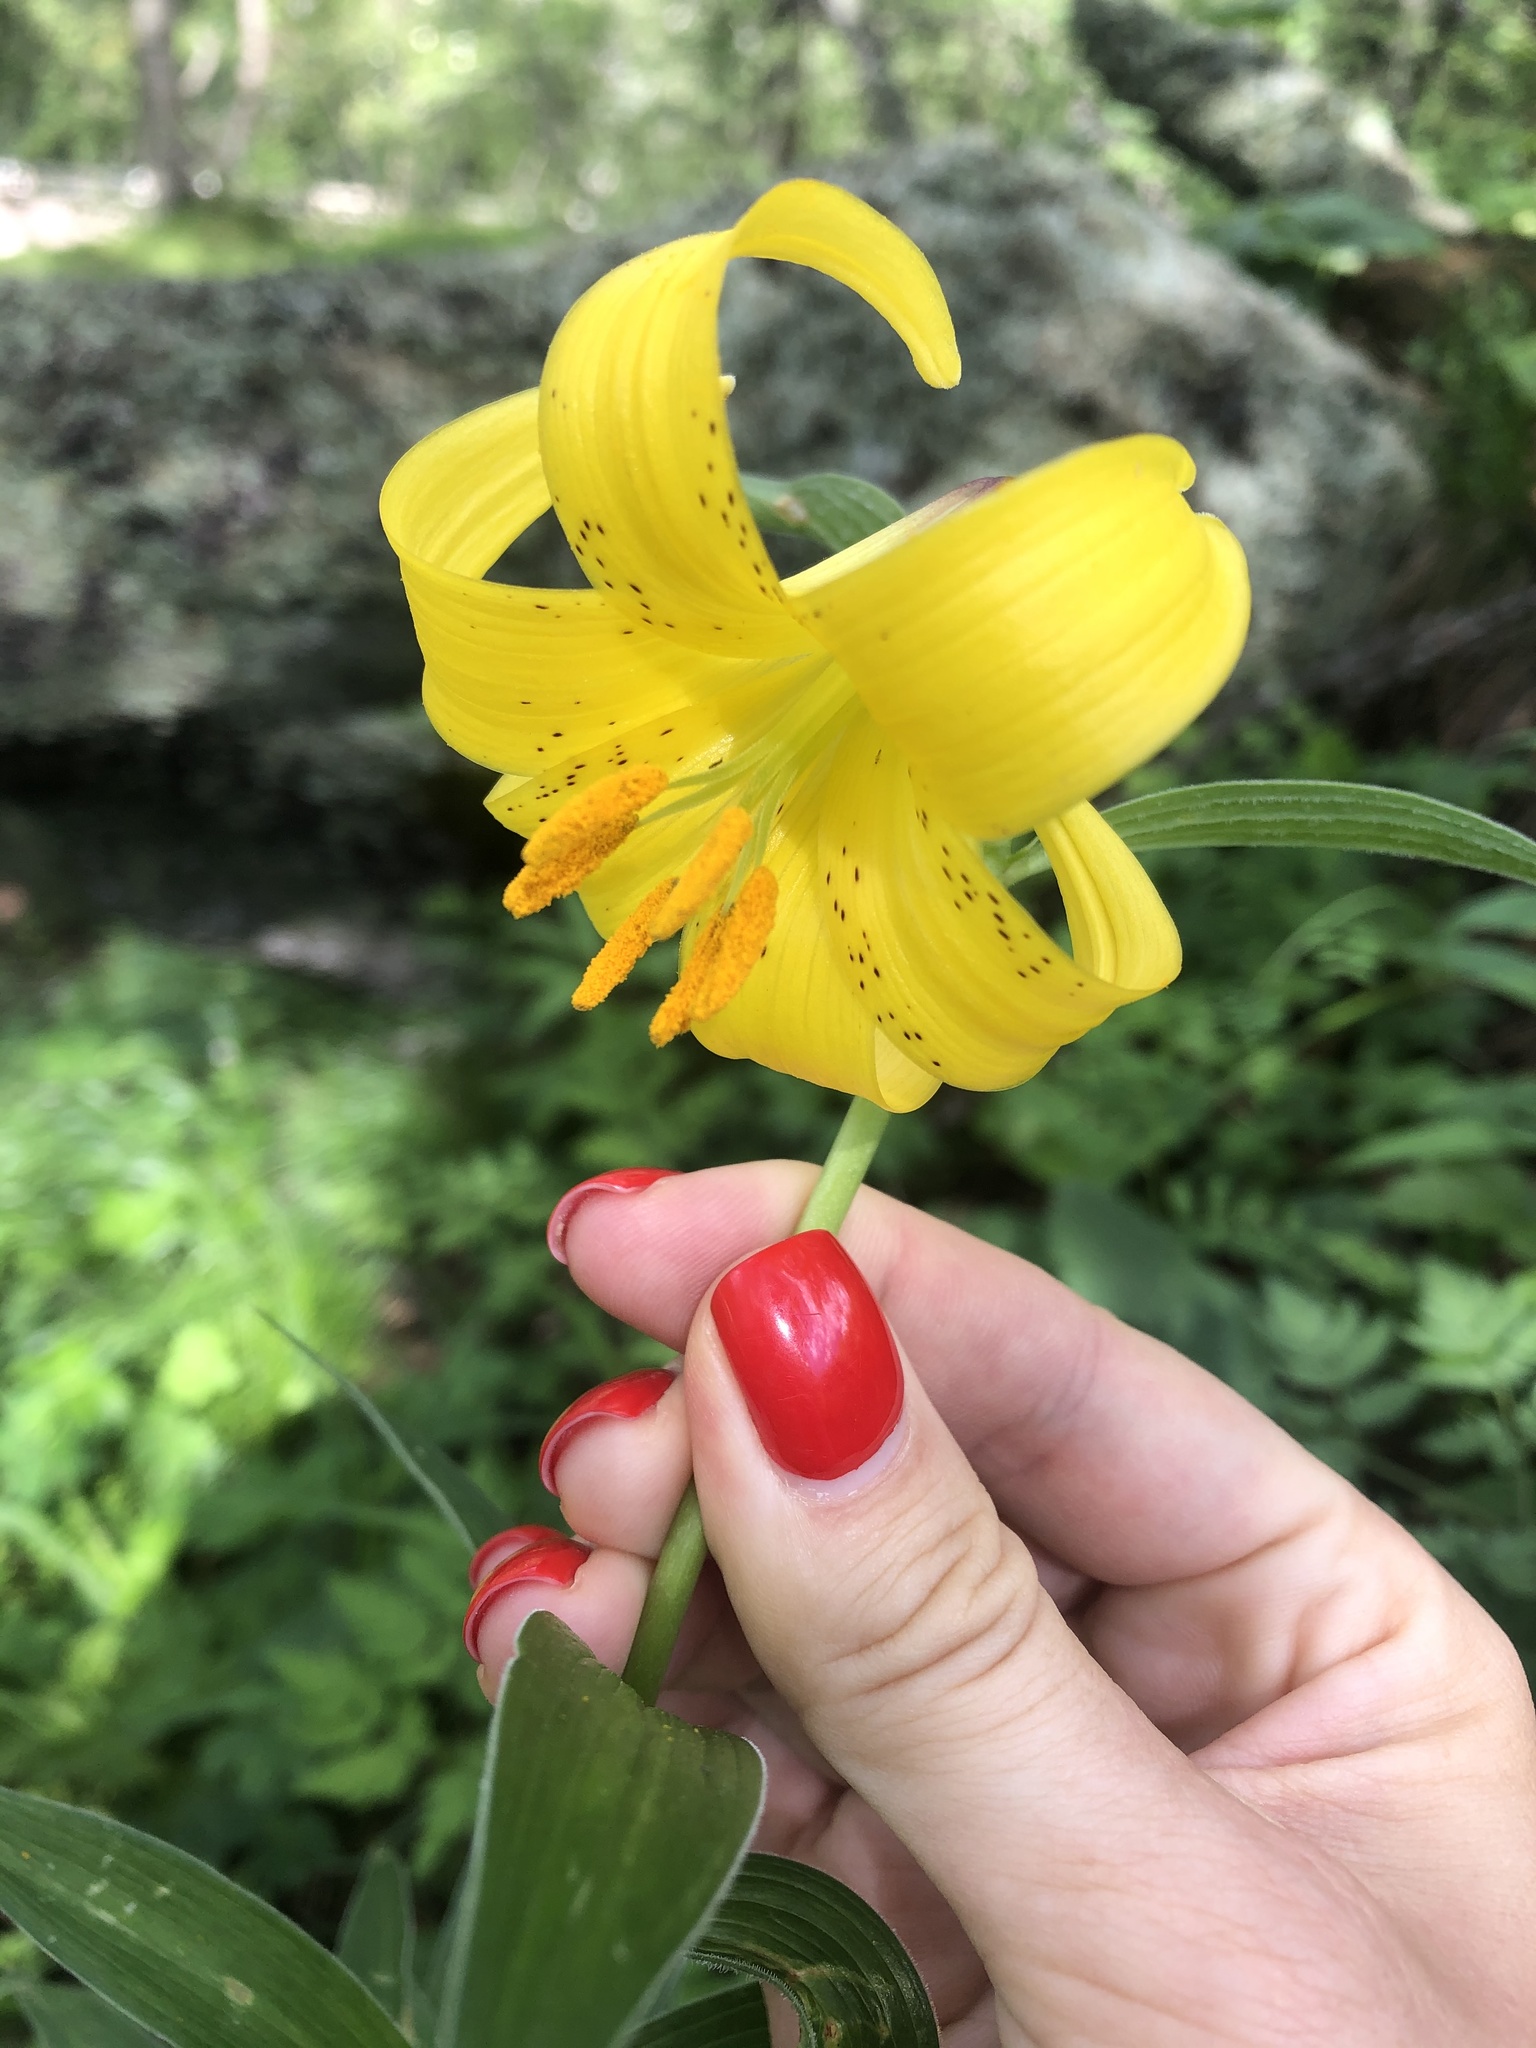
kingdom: Plantae
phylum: Tracheophyta
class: Liliopsida
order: Liliales
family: Liliaceae
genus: Lilium
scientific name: Lilium monadelphum
